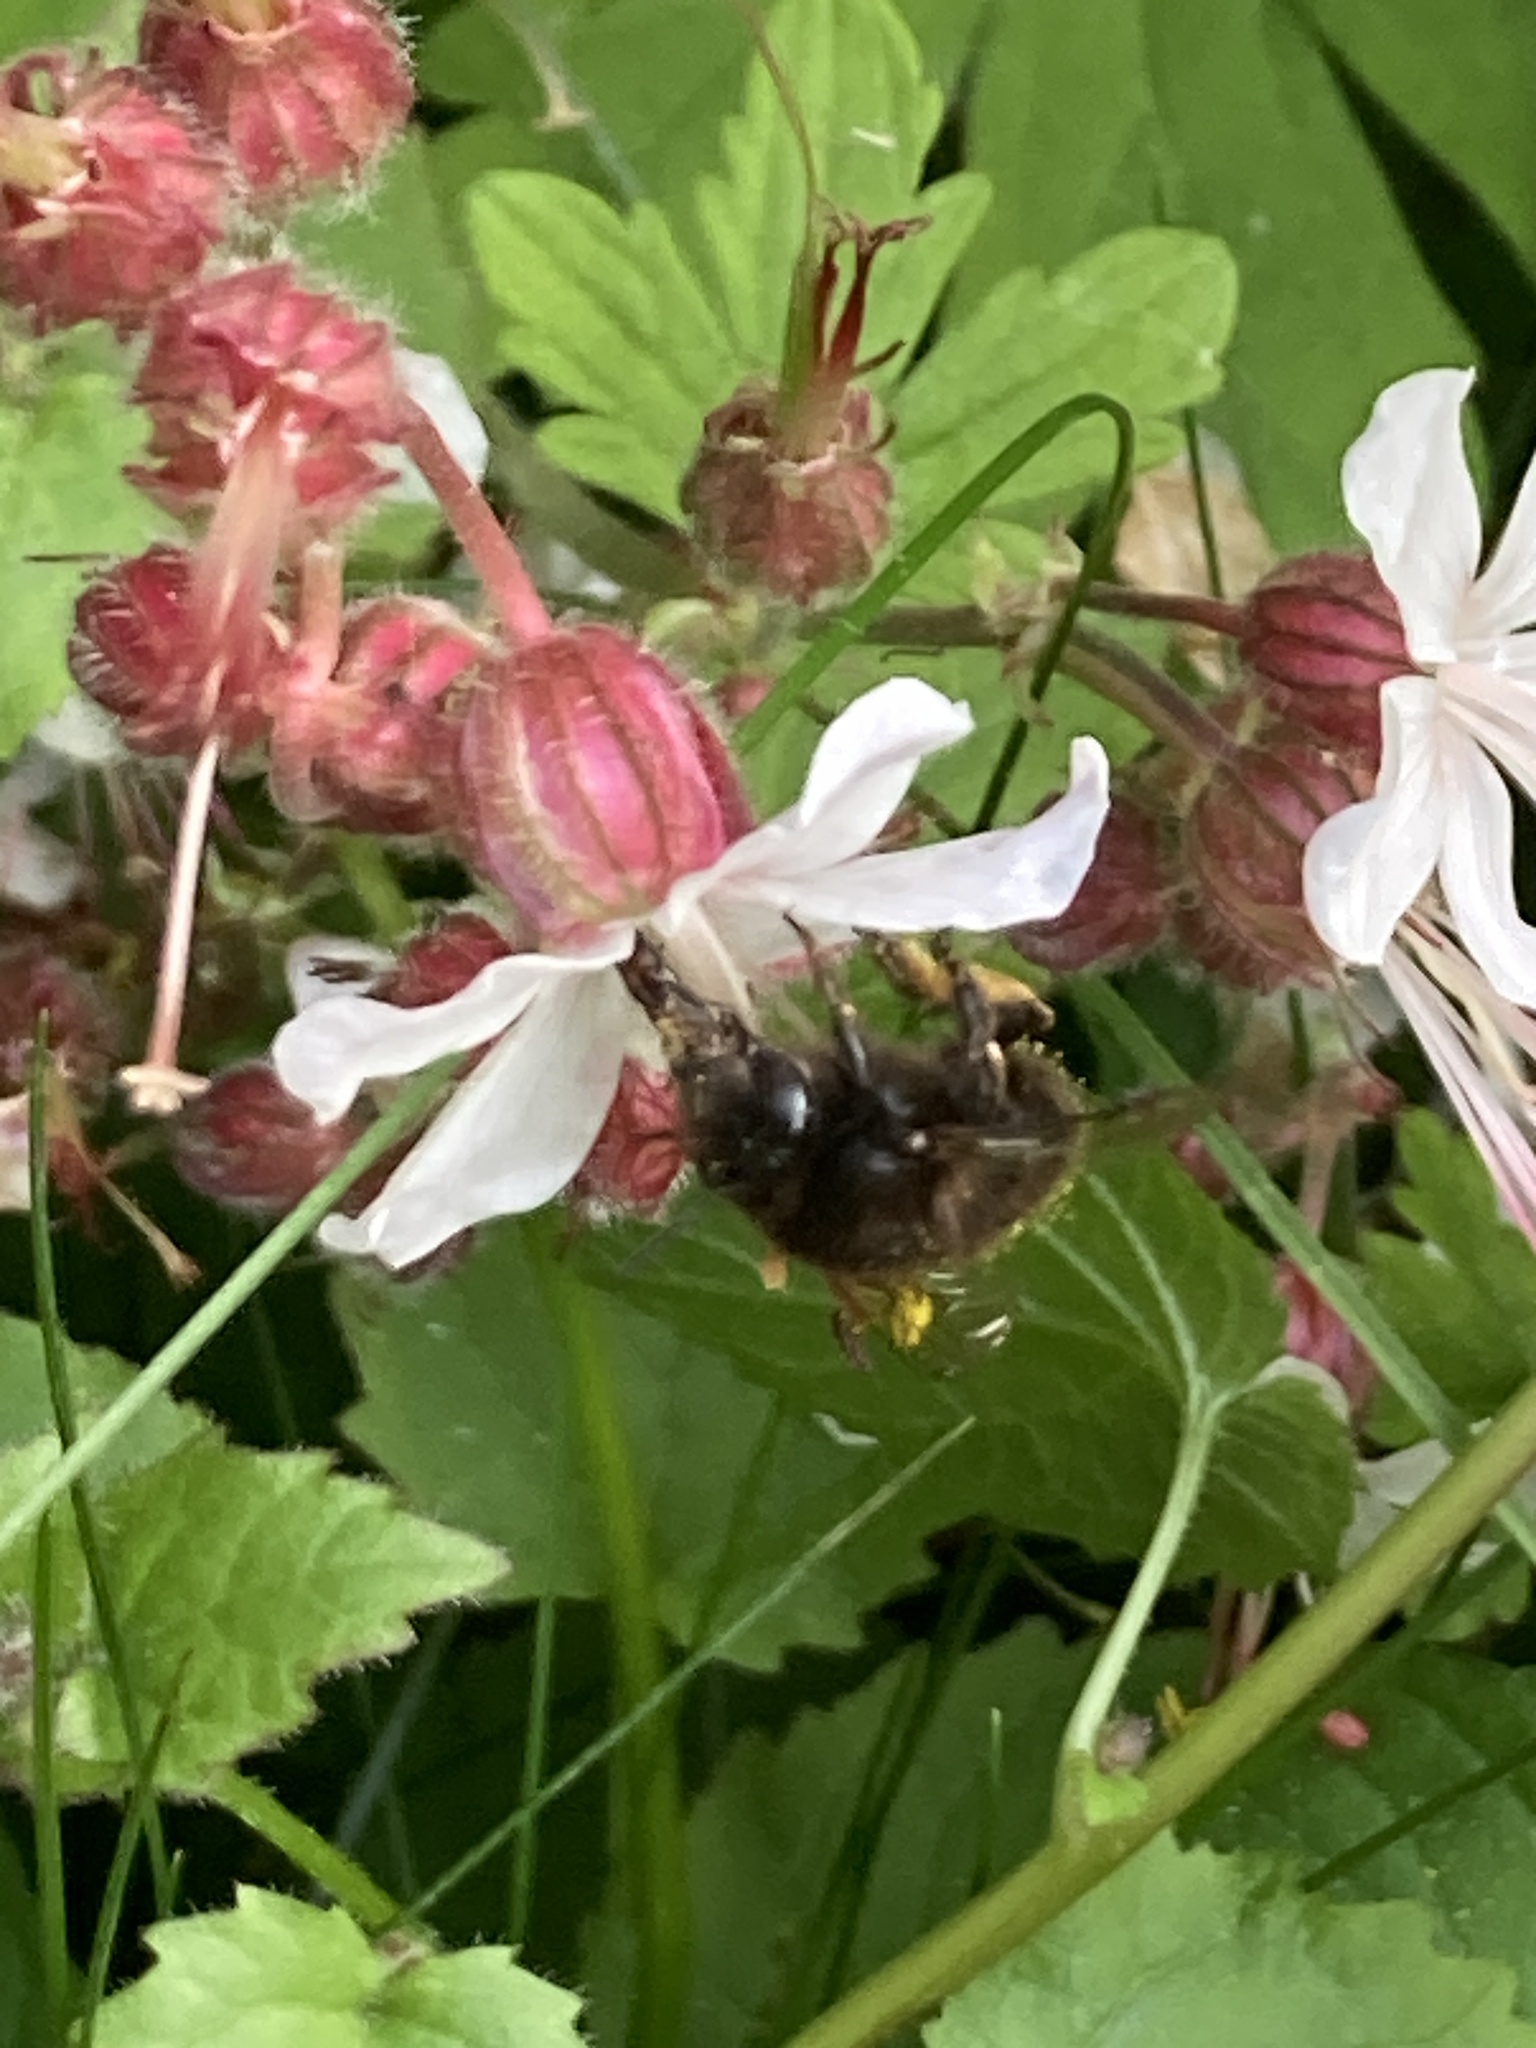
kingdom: Animalia
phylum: Arthropoda
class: Insecta
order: Hymenoptera
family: Apidae
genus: Anthophora
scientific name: Anthophora plumipes
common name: Hairy-footed flower bee
